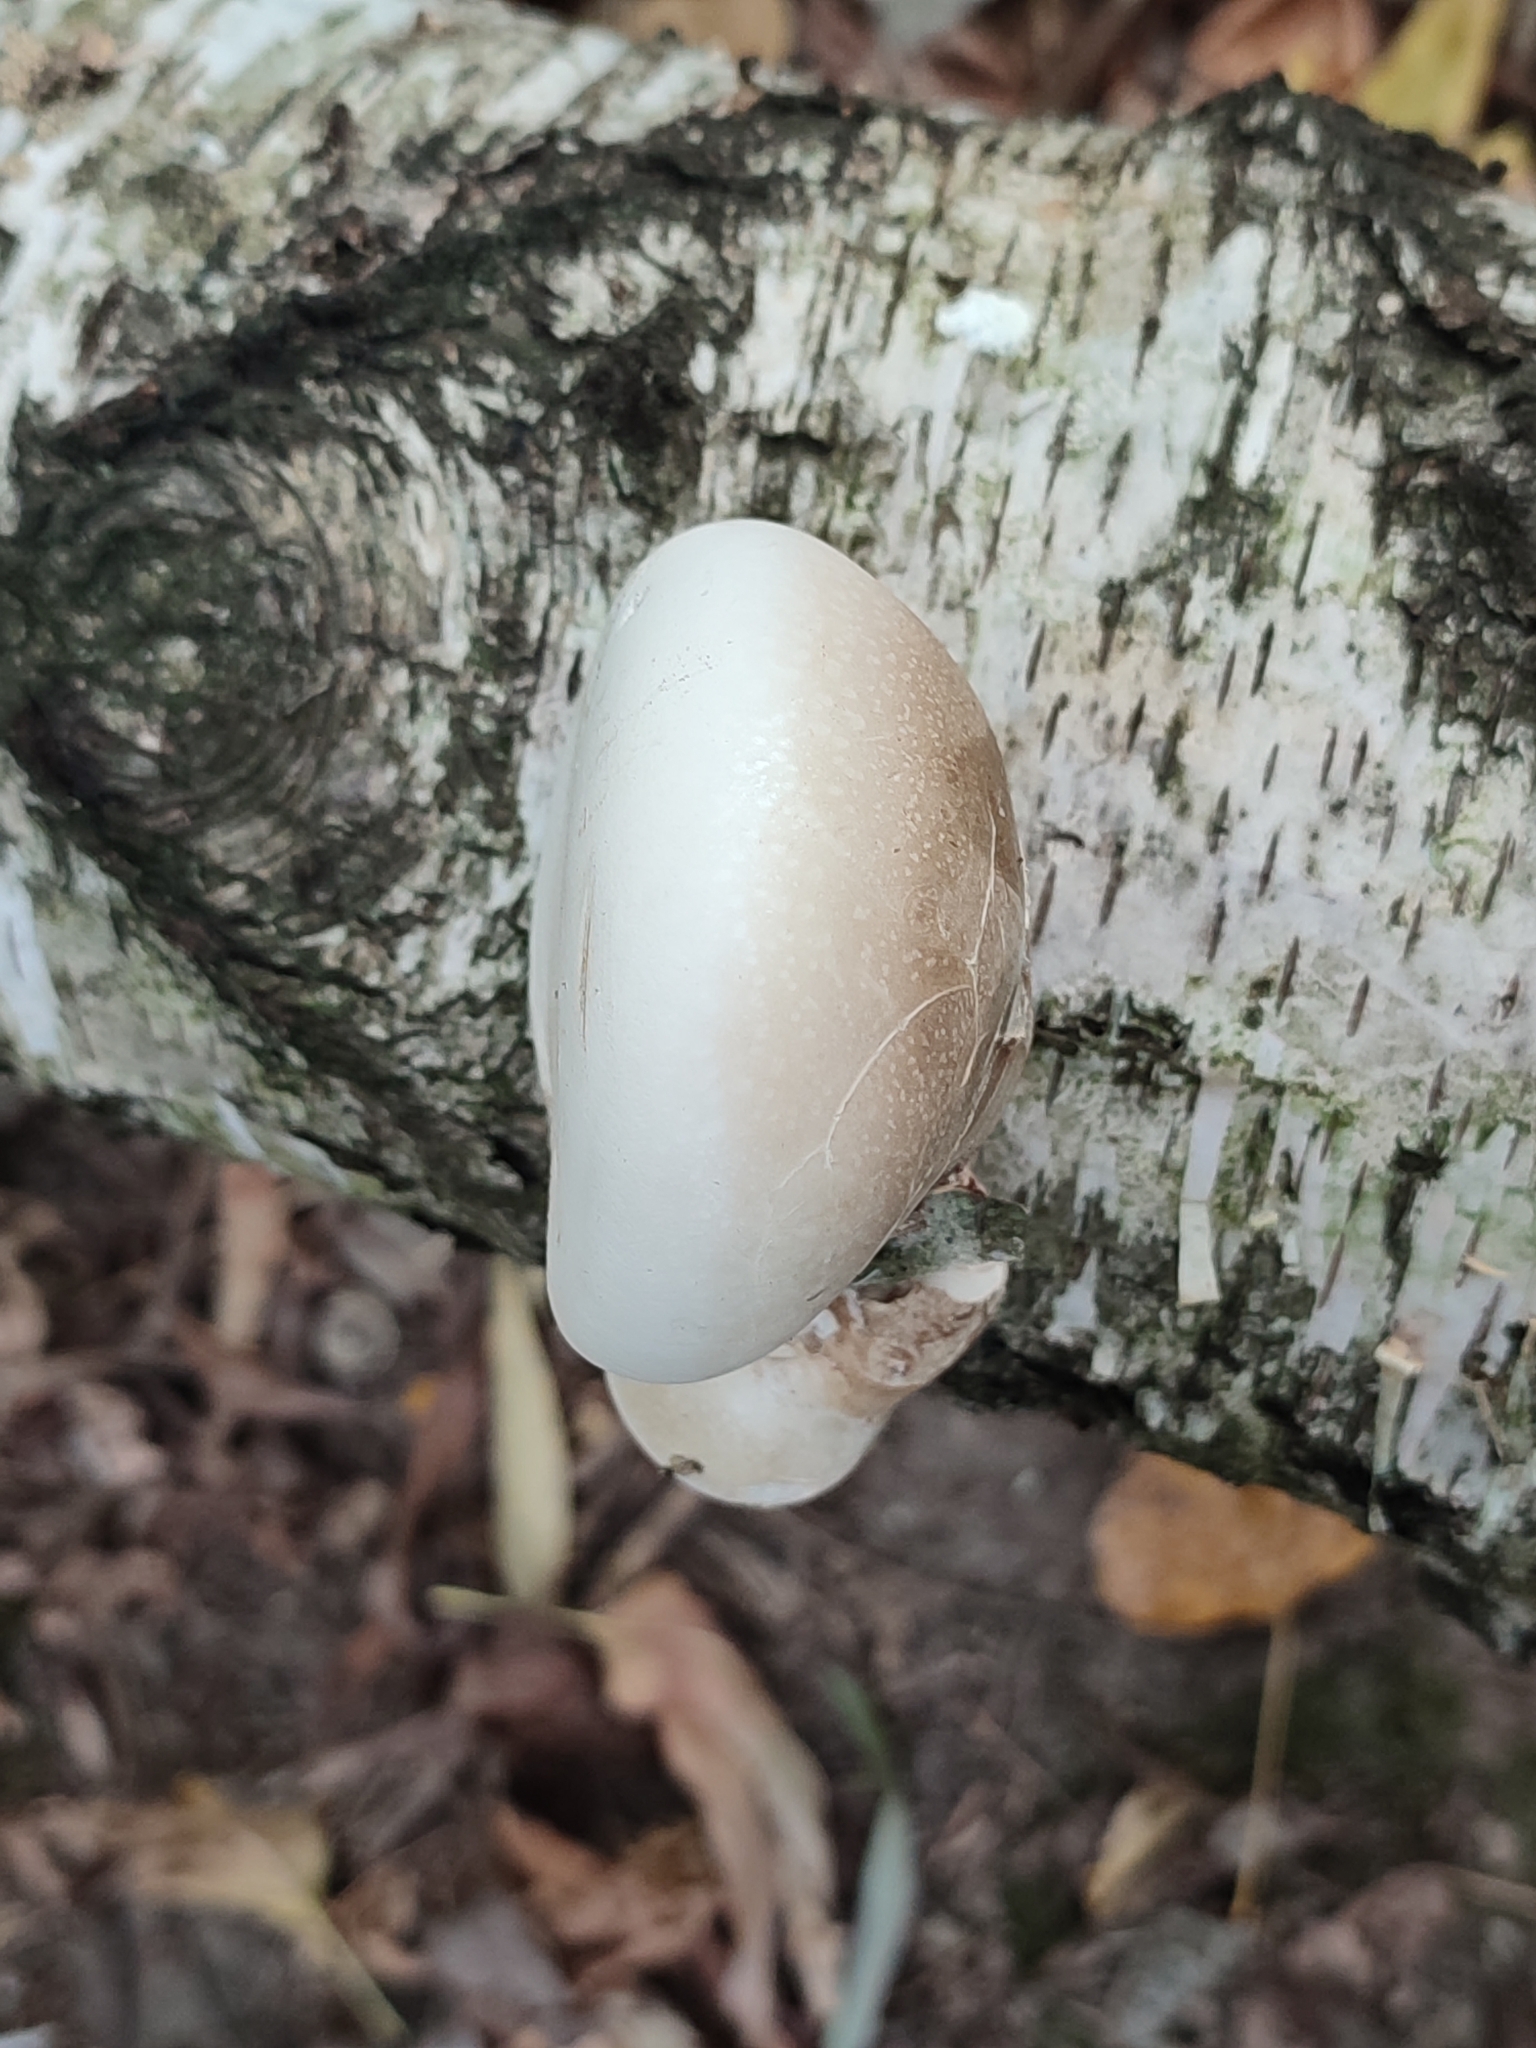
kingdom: Fungi
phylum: Basidiomycota
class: Agaricomycetes
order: Polyporales
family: Fomitopsidaceae
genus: Fomitopsis
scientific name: Fomitopsis betulina
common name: Birch polypore
